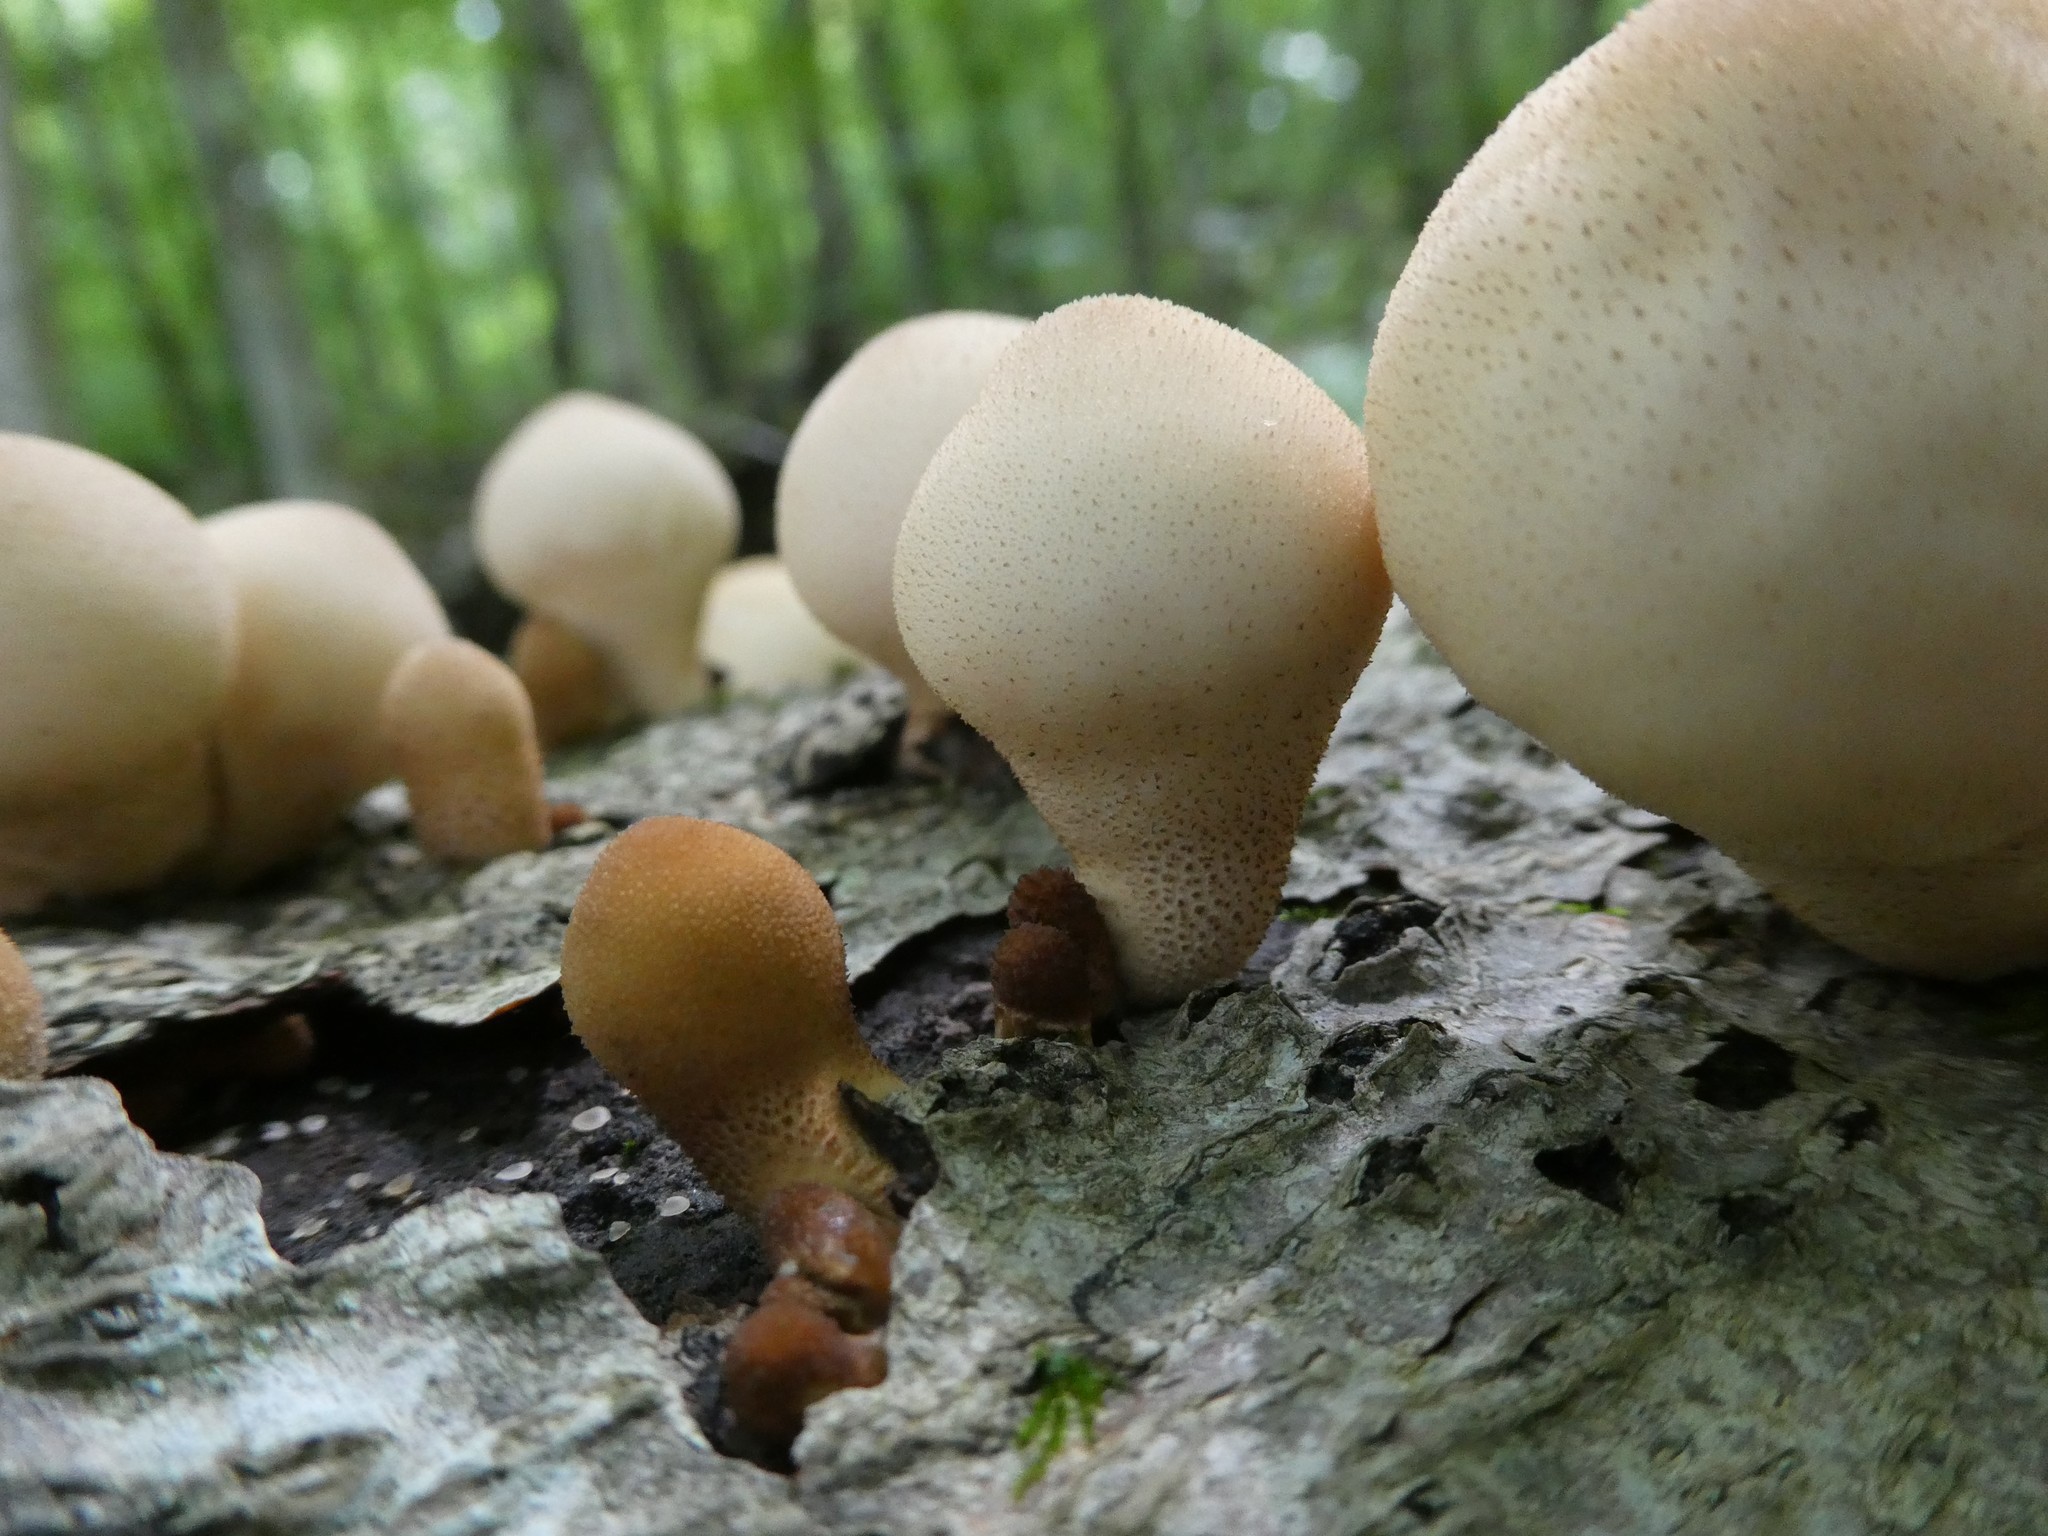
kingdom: Fungi
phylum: Basidiomycota
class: Agaricomycetes
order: Agaricales
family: Lycoperdaceae
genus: Apioperdon
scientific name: Apioperdon pyriforme
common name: Pear-shaped puffball
